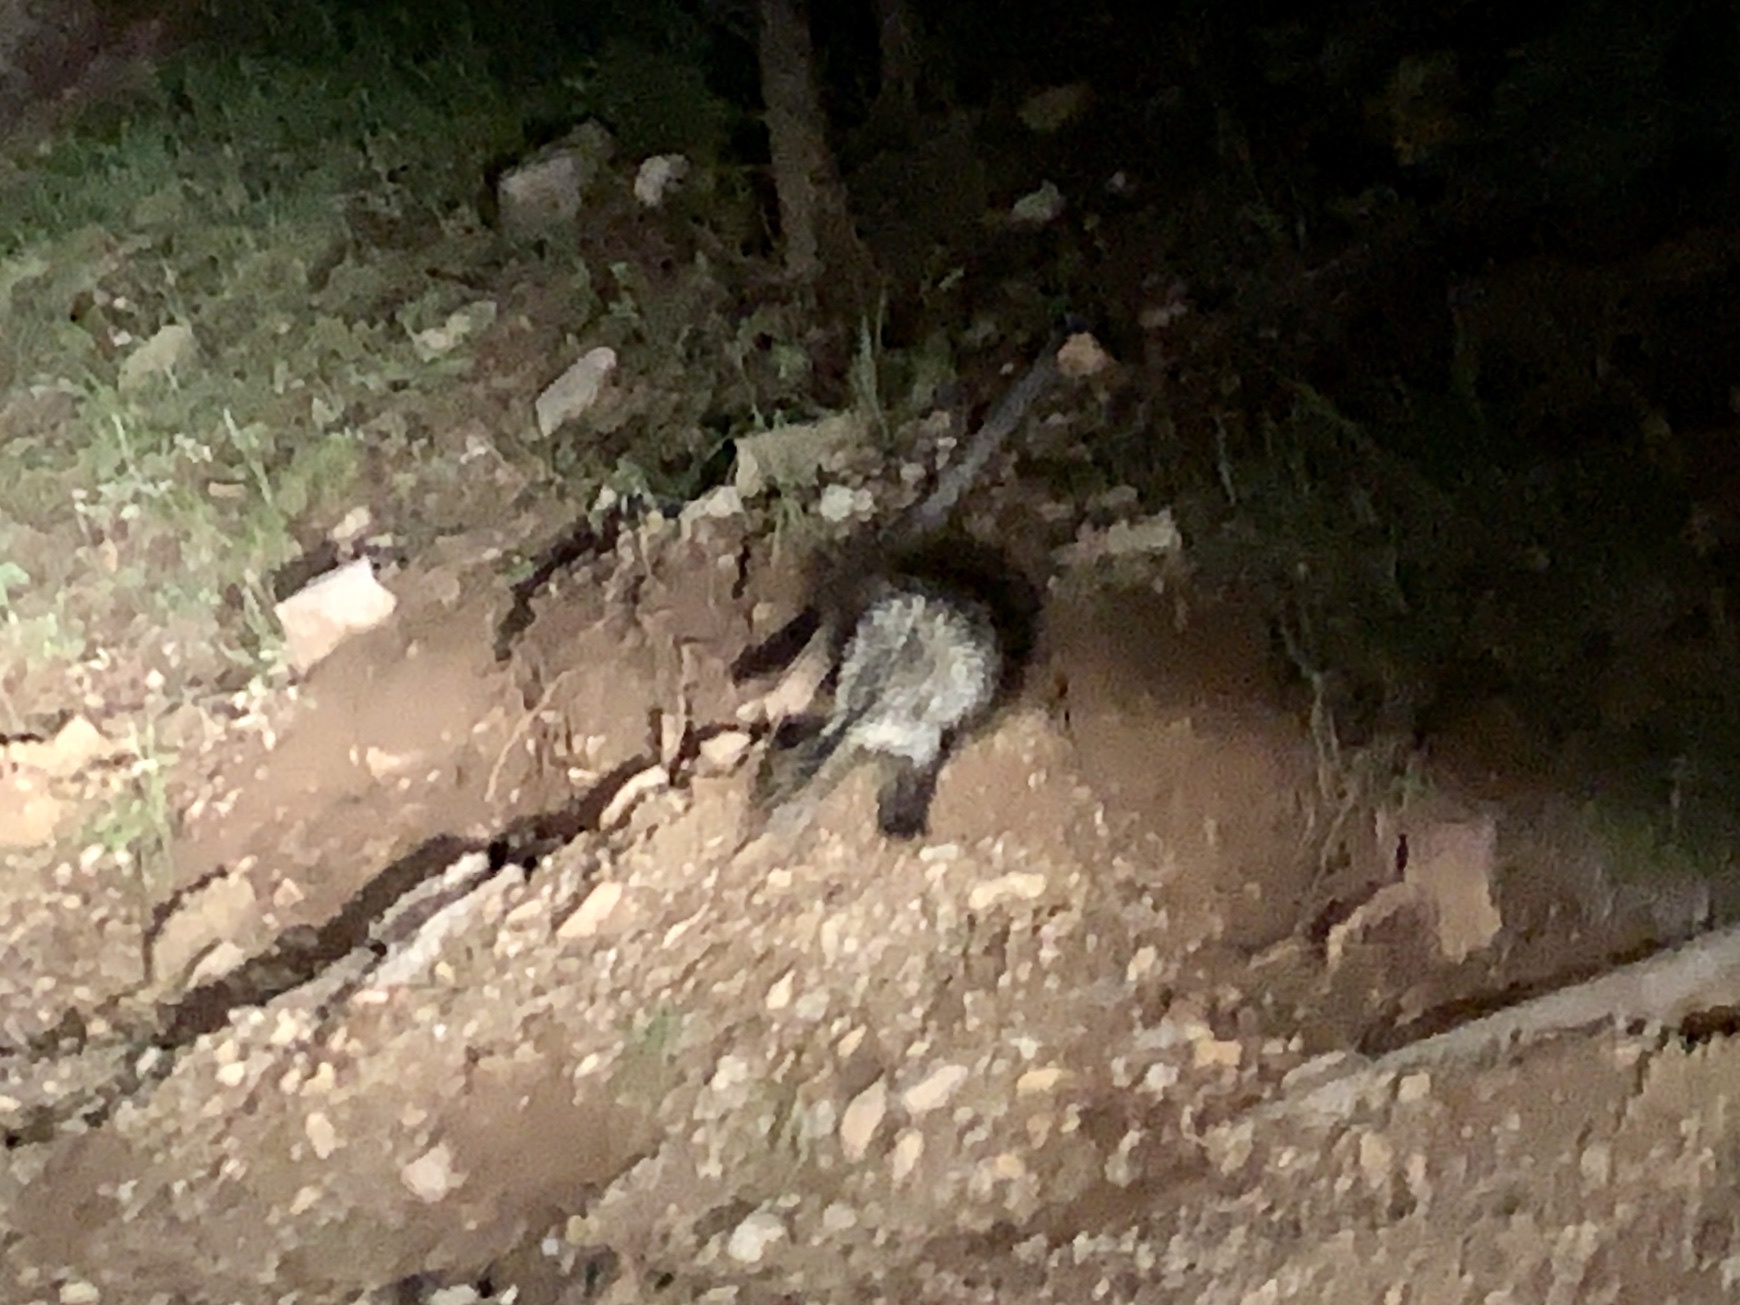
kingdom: Animalia
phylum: Chordata
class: Mammalia
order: Rodentia
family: Erethizontidae
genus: Erethizon
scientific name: Erethizon dorsatus
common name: North american porcupine
